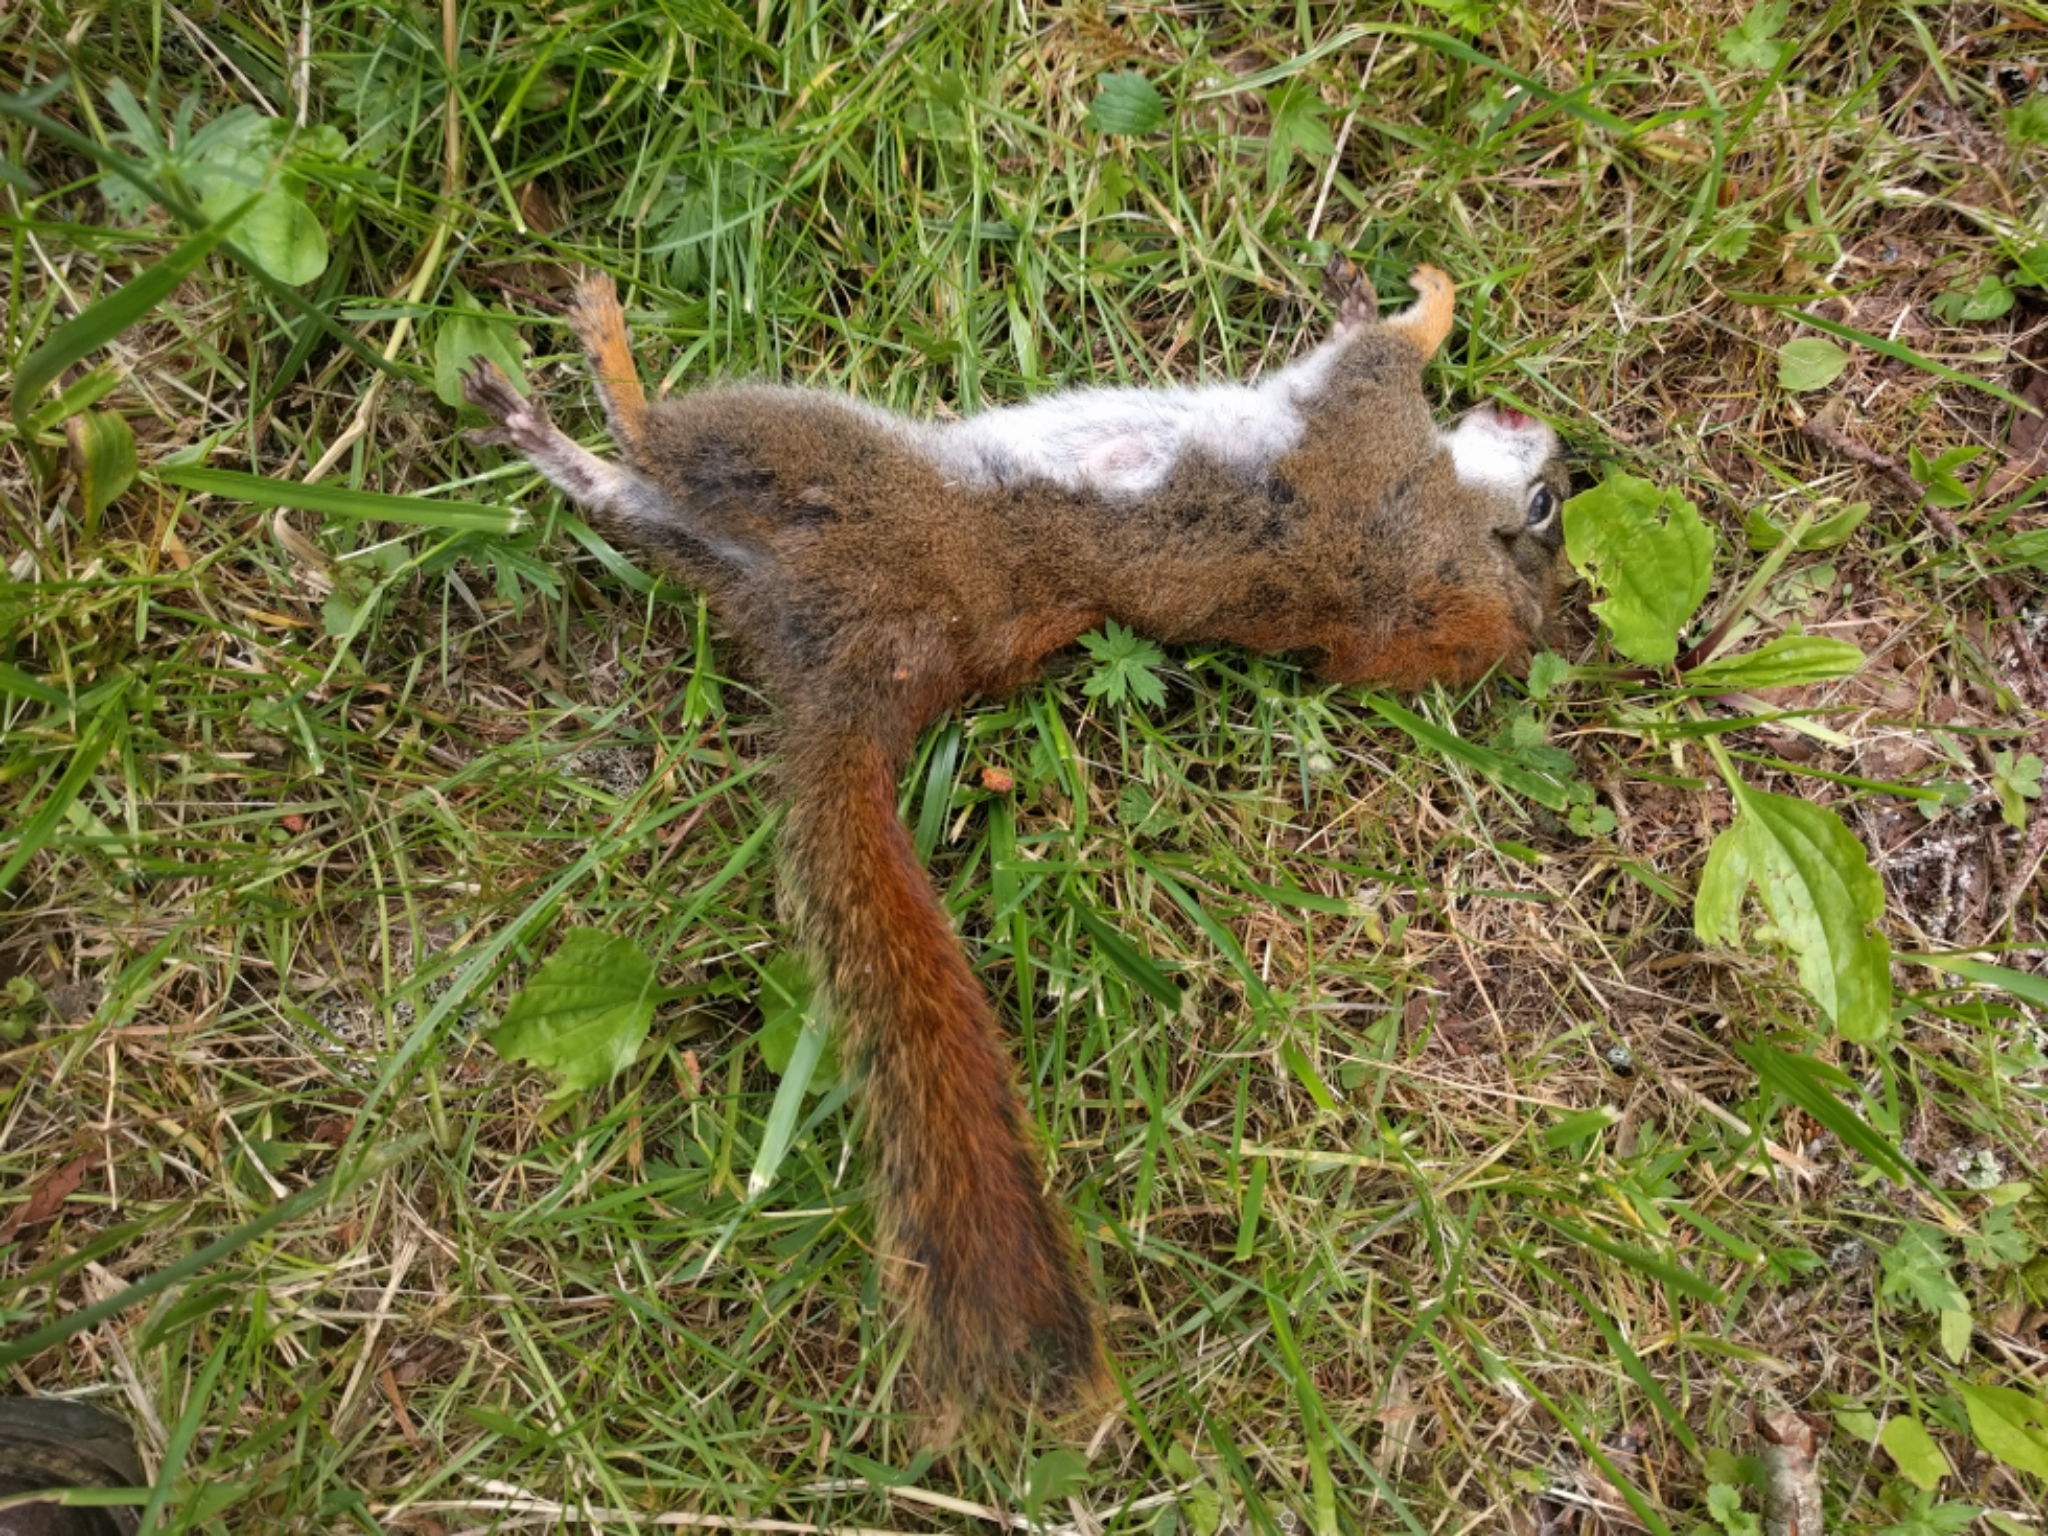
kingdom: Animalia
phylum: Chordata
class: Mammalia
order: Rodentia
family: Sciuridae
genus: Tamiasciurus
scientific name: Tamiasciurus hudsonicus
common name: Red squirrel
